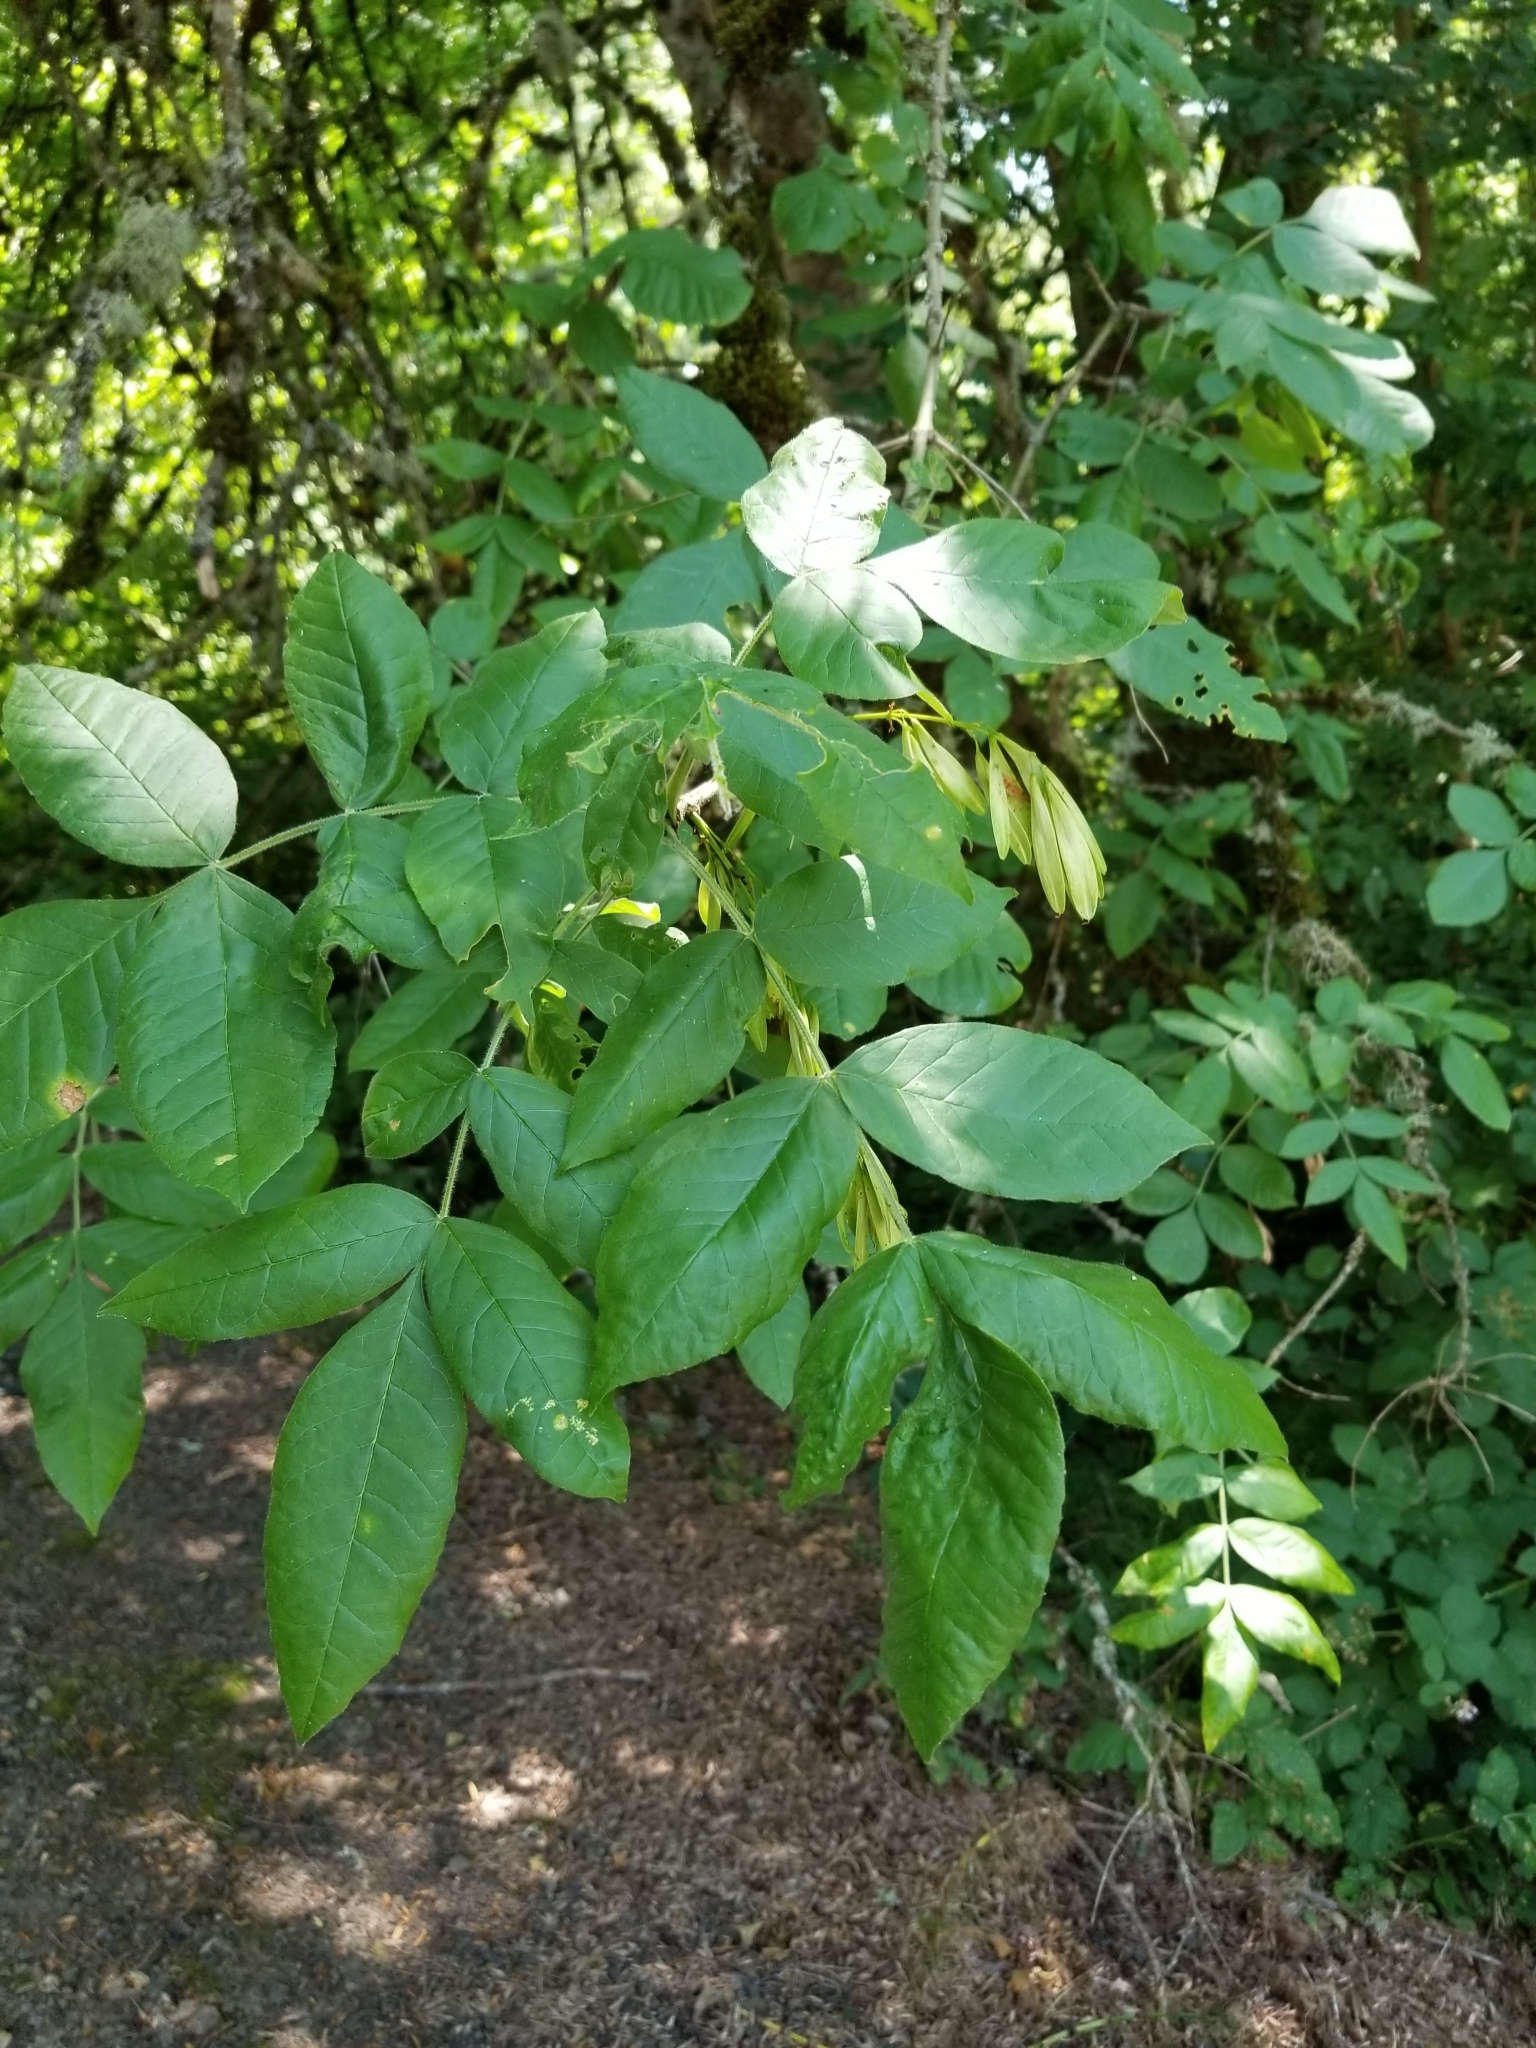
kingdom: Plantae
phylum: Tracheophyta
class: Magnoliopsida
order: Lamiales
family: Oleaceae
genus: Fraxinus
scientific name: Fraxinus latifolia
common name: Oregon ash
